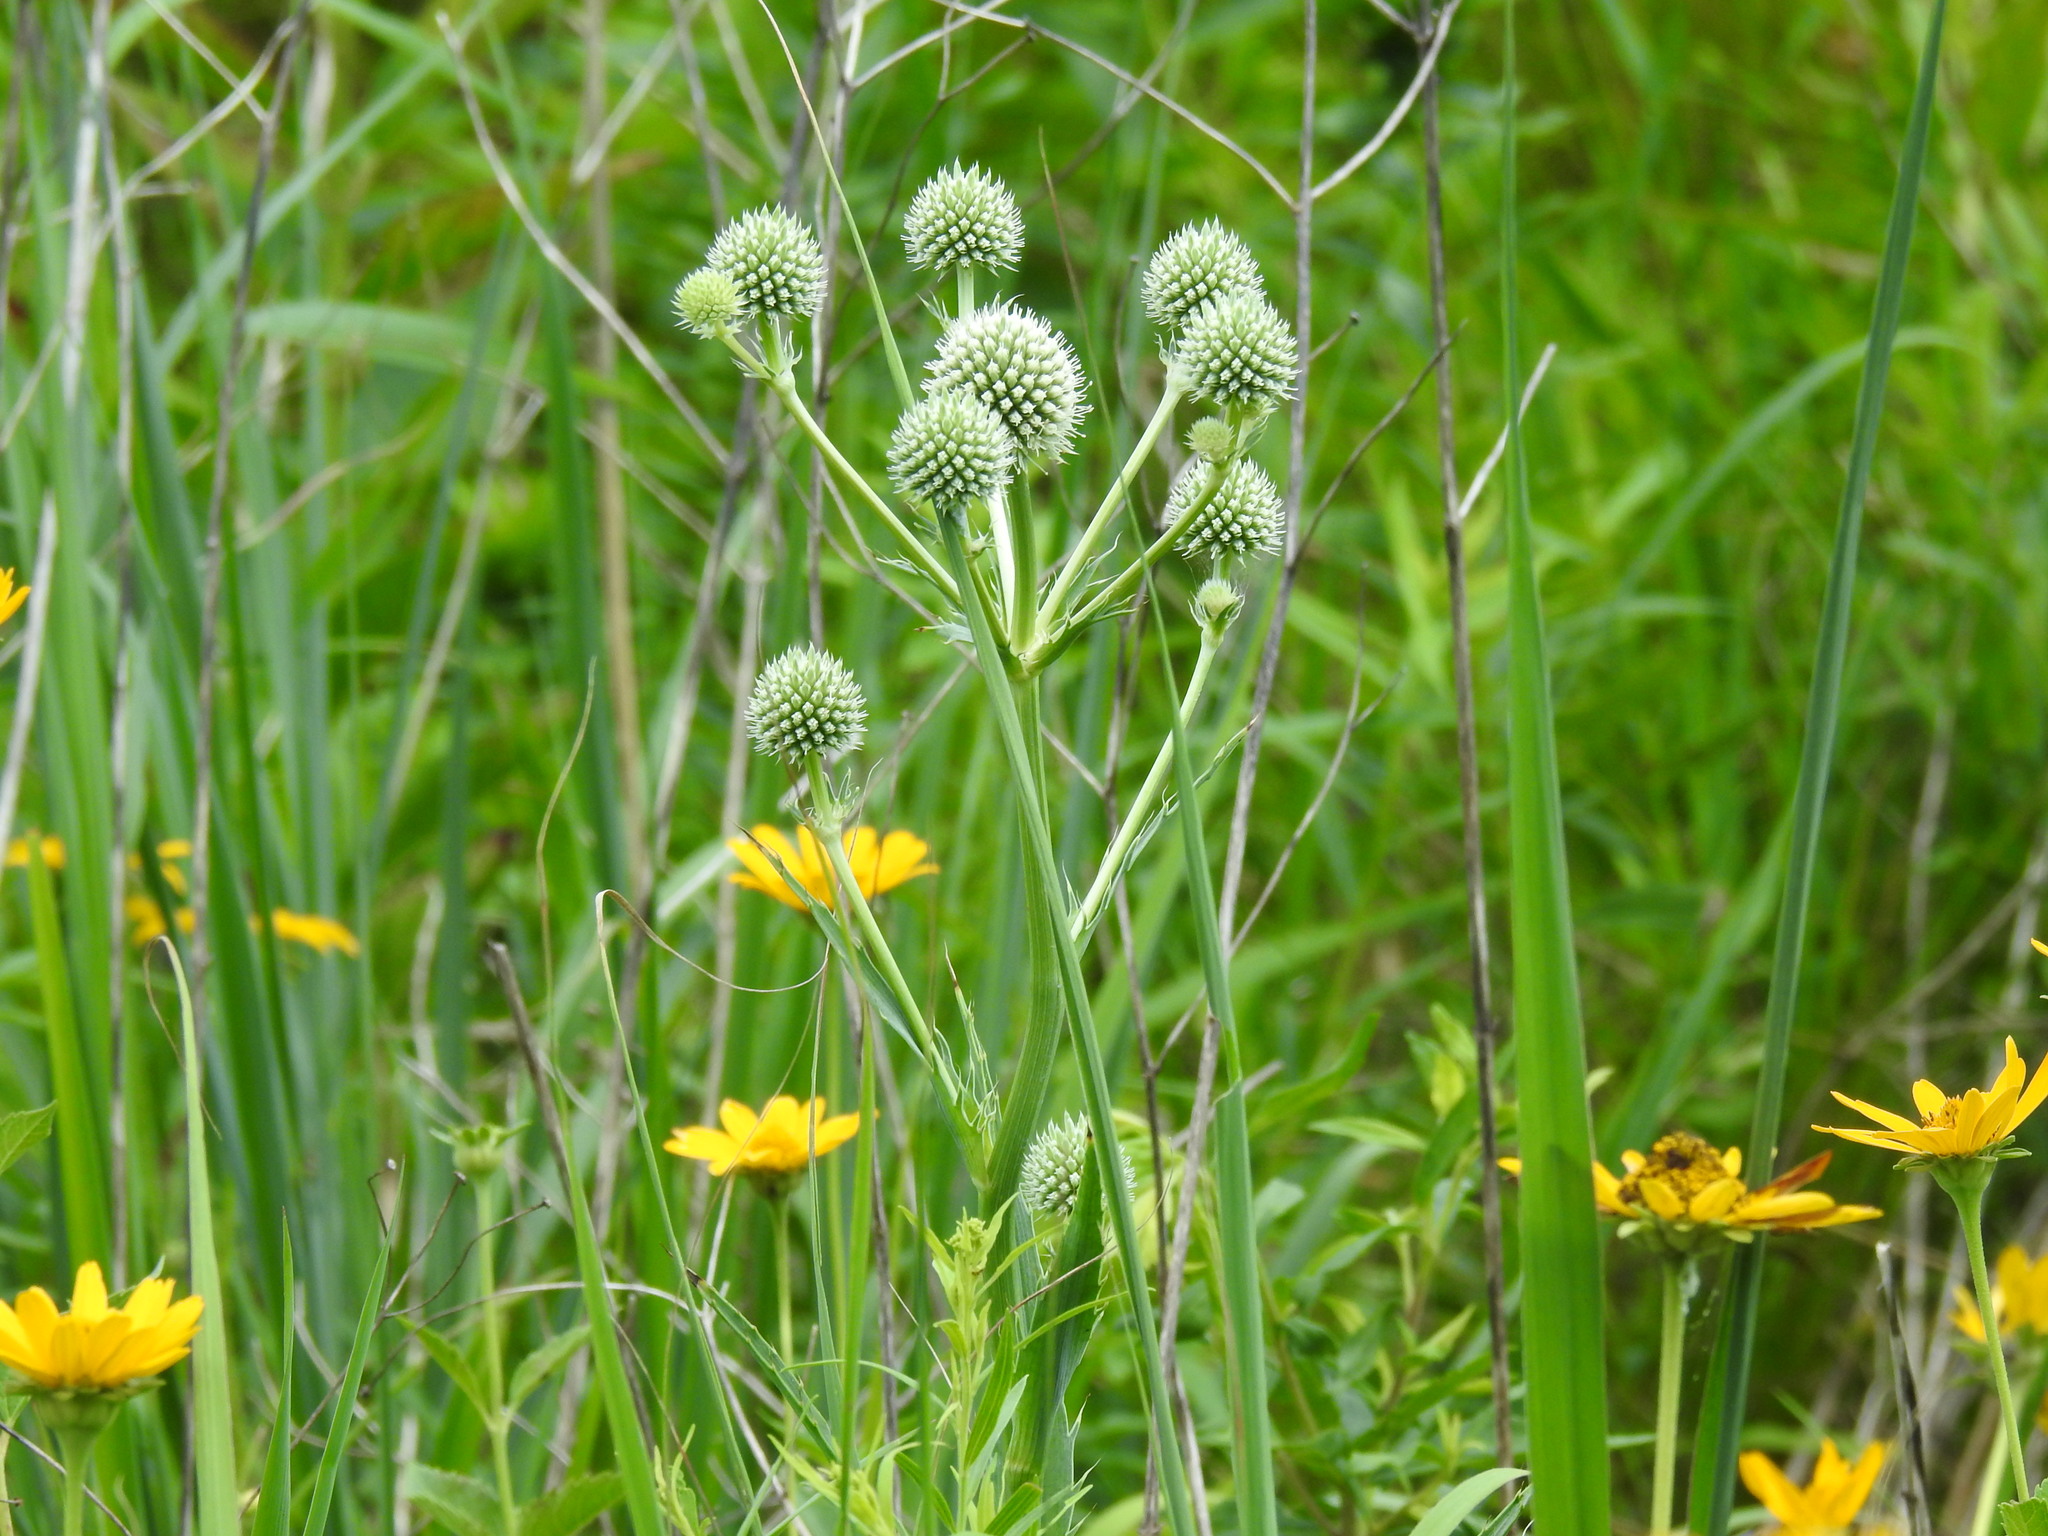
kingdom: Plantae
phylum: Tracheophyta
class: Magnoliopsida
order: Apiales
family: Apiaceae
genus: Eryngium
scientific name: Eryngium yuccifolium
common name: Button eryngo
